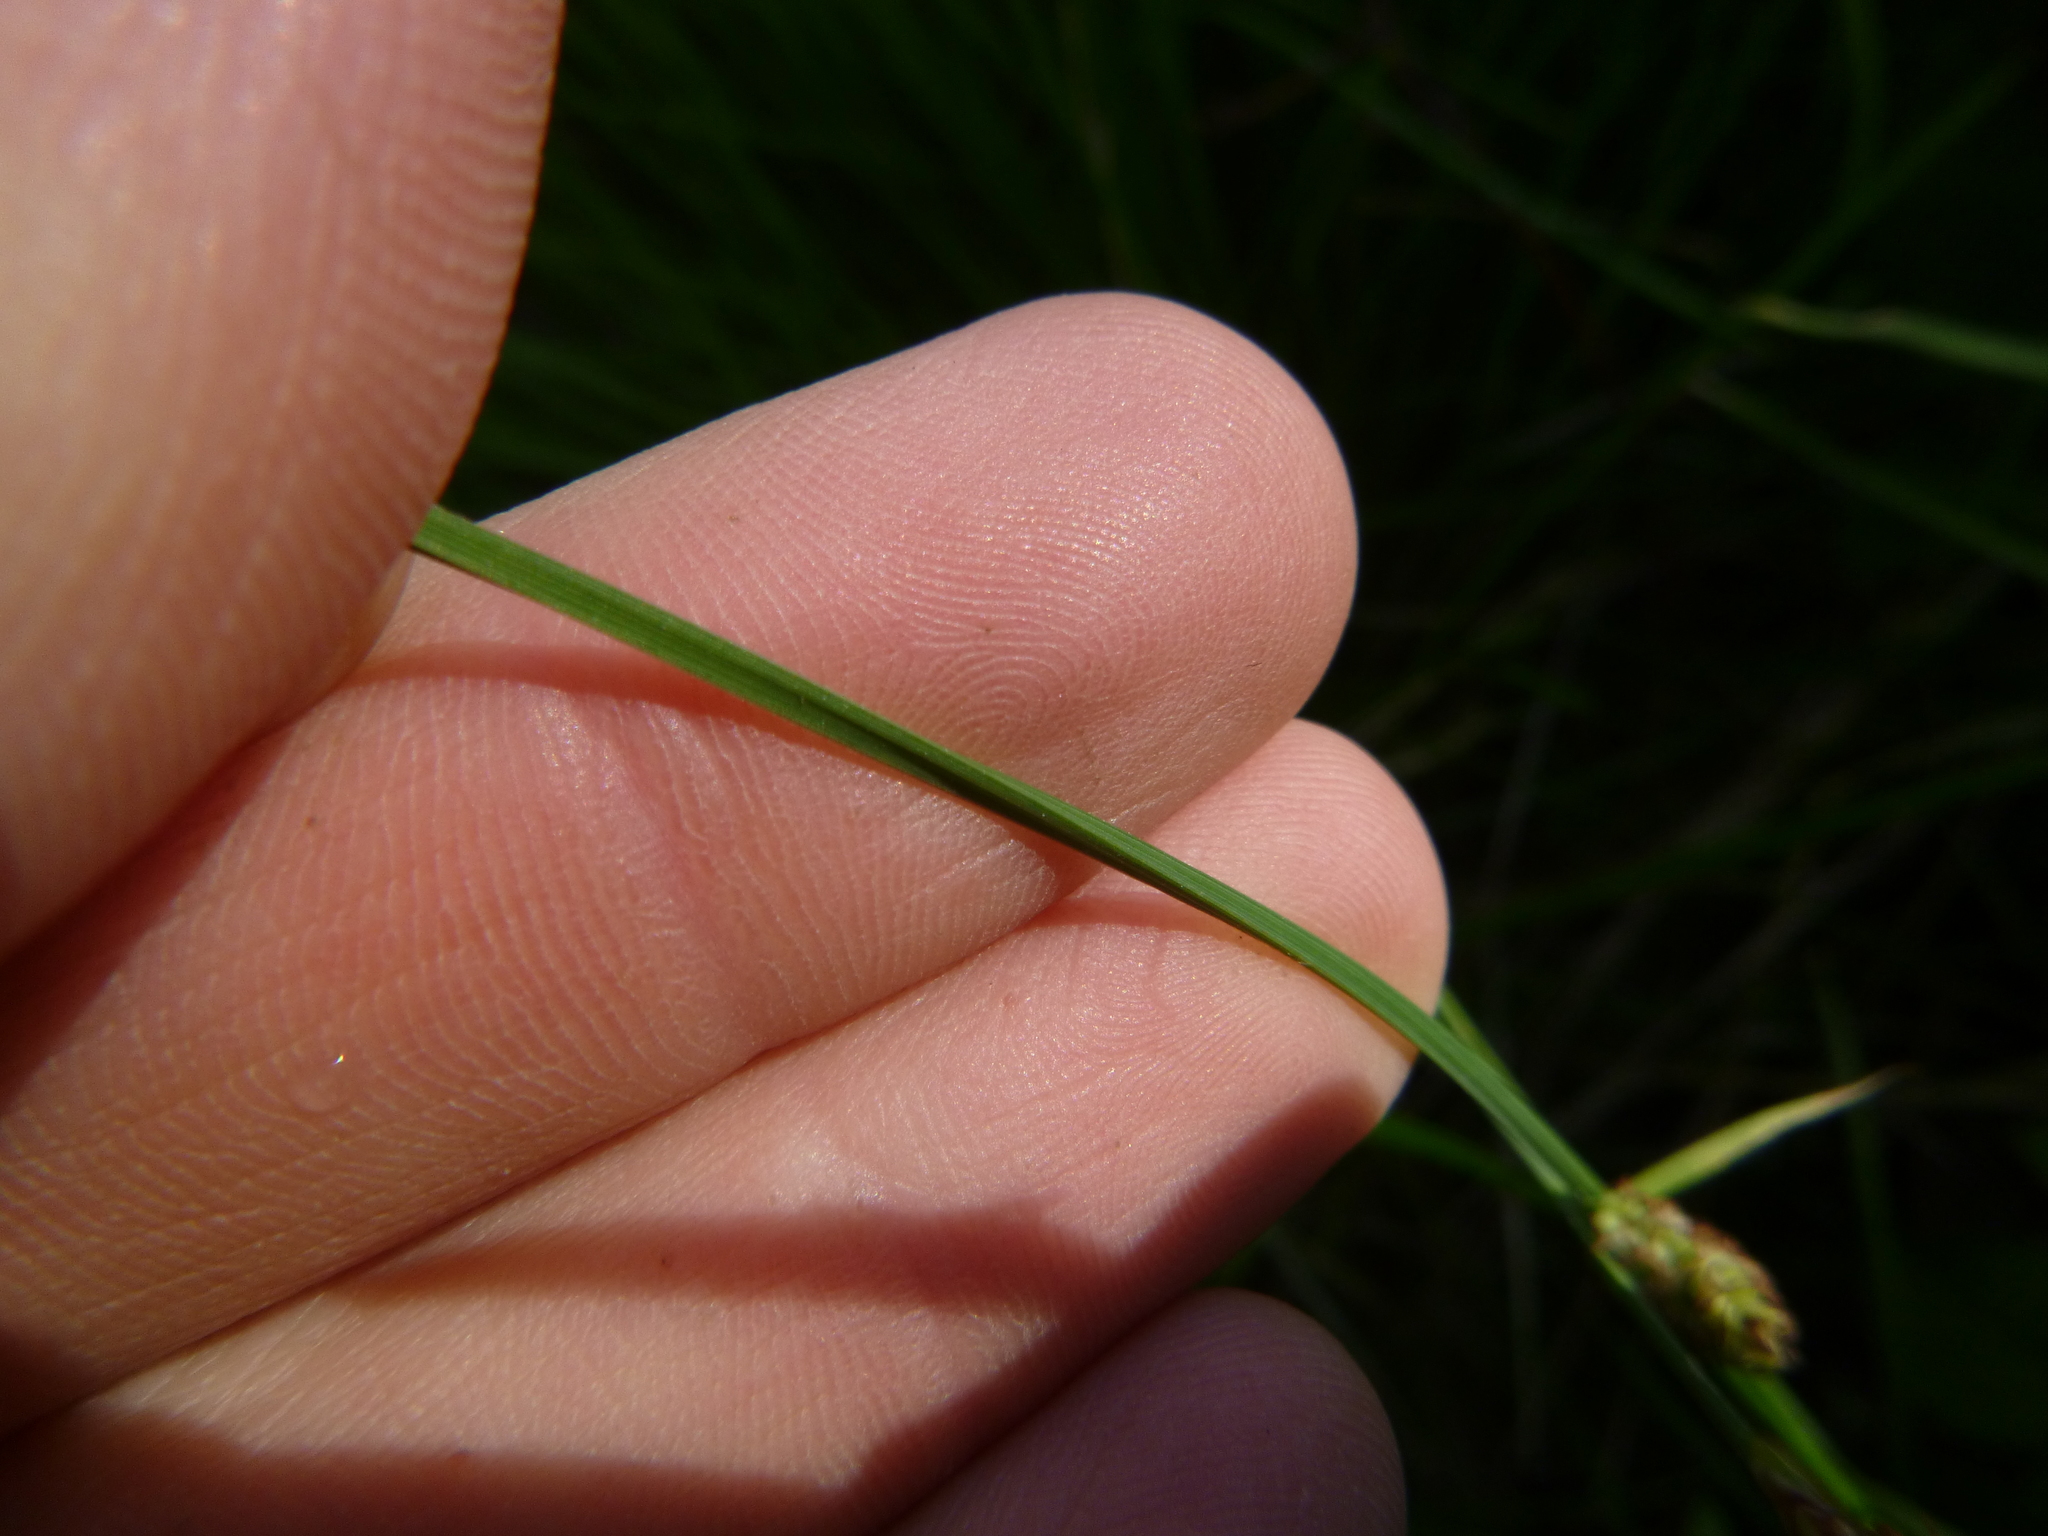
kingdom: Plantae
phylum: Tracheophyta
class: Liliopsida
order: Poales
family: Cyperaceae
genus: Carex
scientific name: Carex tomentosa
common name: Downy-fruited sedge
